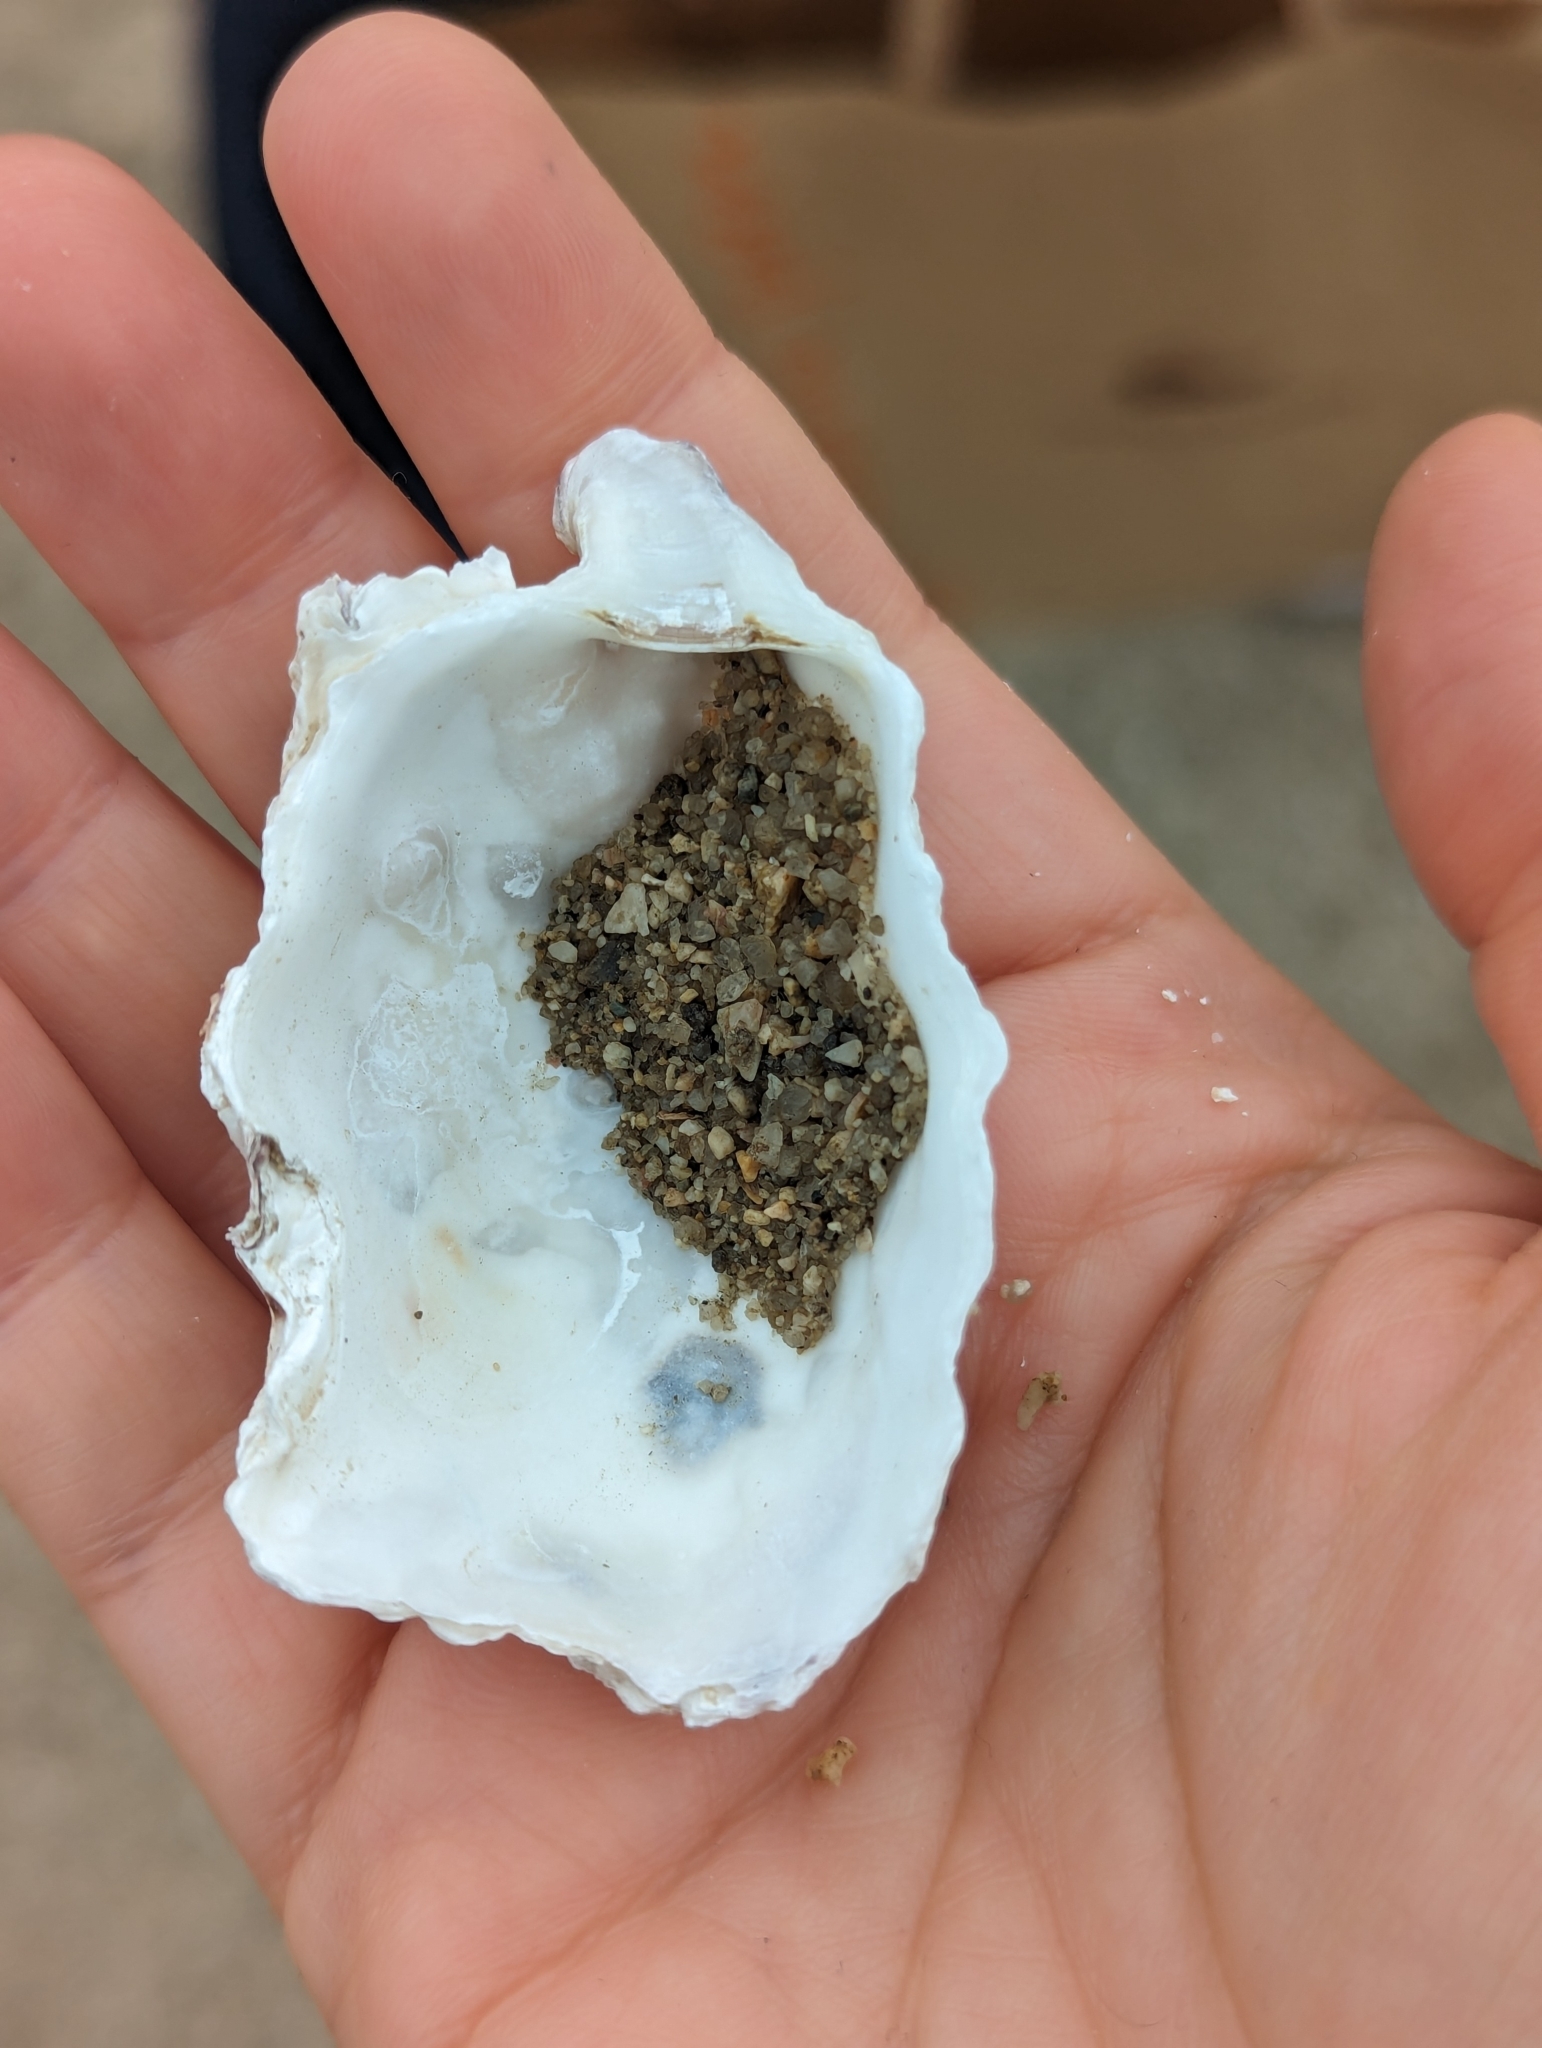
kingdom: Animalia
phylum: Mollusca
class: Bivalvia
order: Ostreida
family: Ostreidae
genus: Magallana
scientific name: Magallana gigas
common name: Pacific oyster
